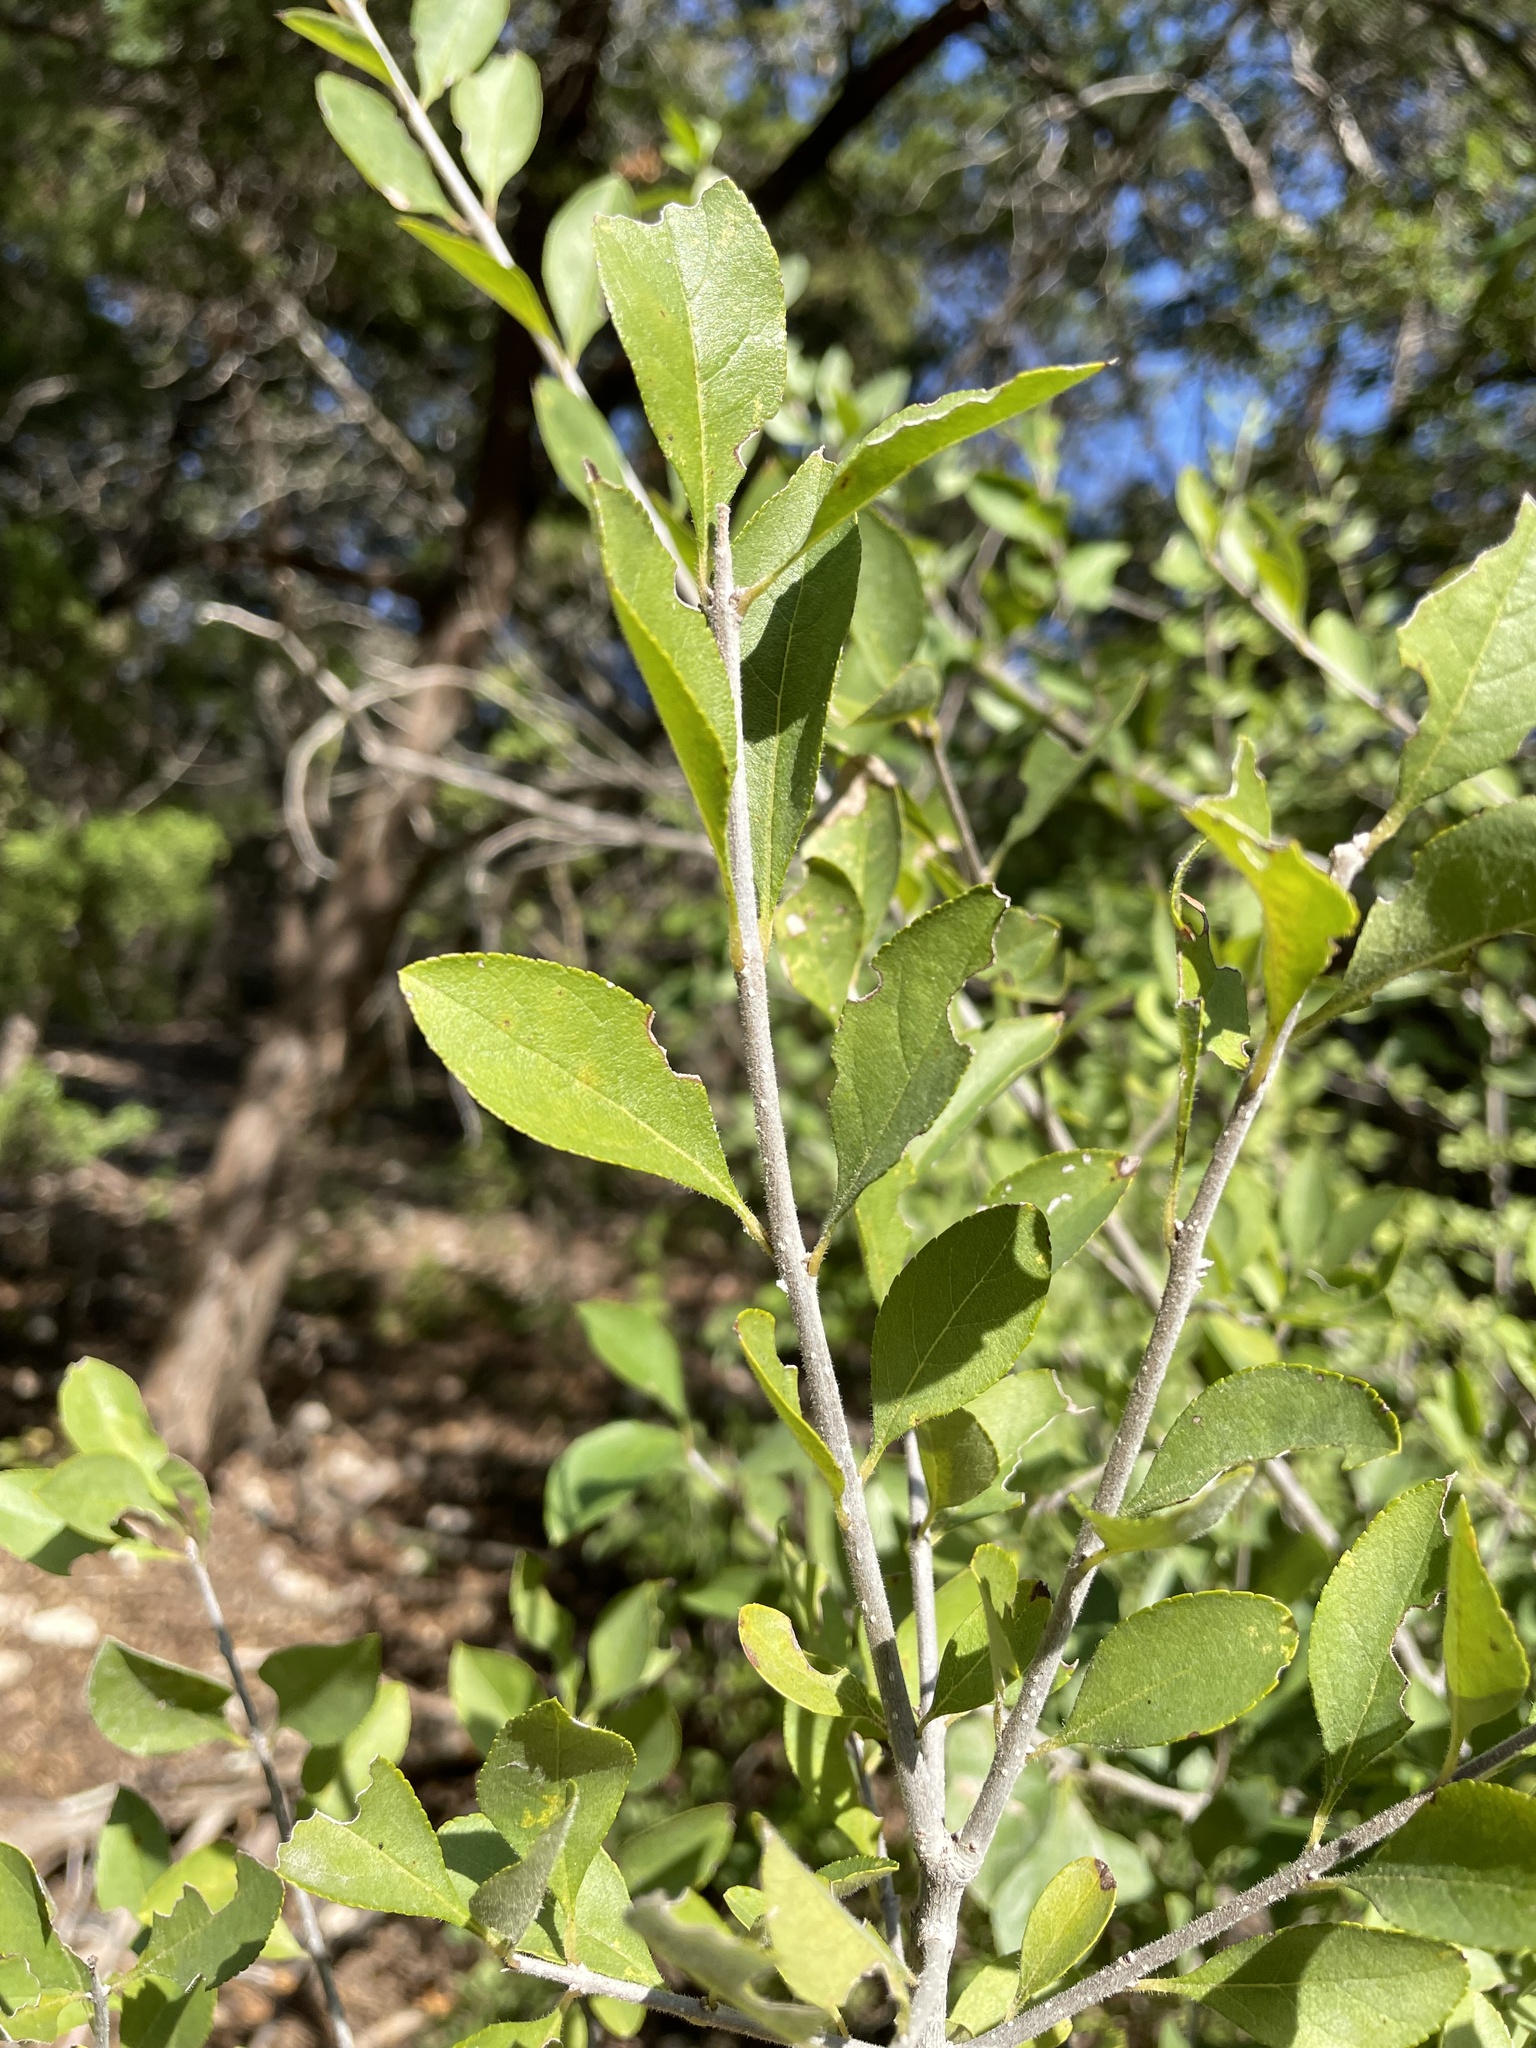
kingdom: Plantae
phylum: Tracheophyta
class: Magnoliopsida
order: Lamiales
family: Oleaceae
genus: Forestiera
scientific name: Forestiera pubescens
